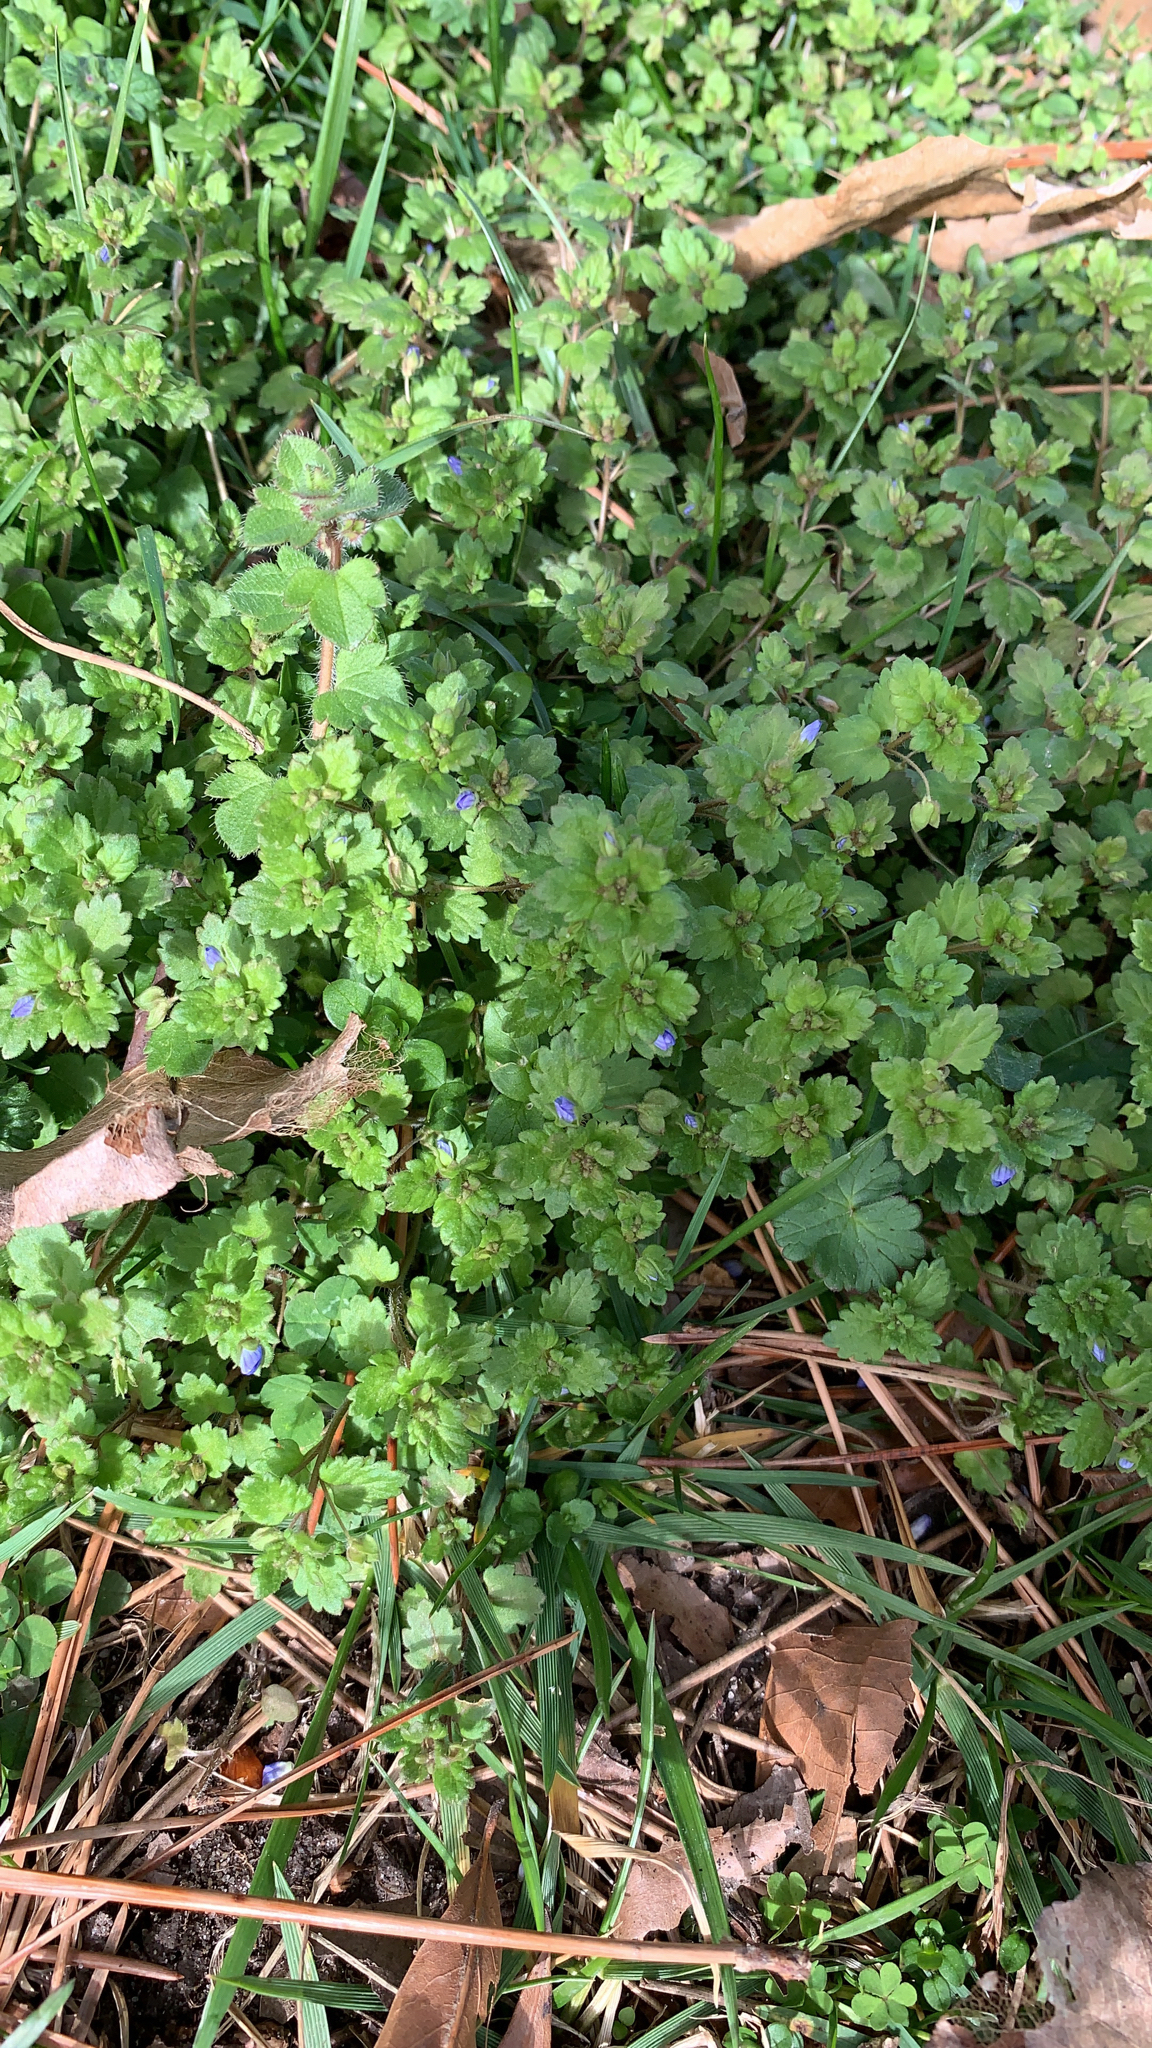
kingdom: Plantae
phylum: Tracheophyta
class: Magnoliopsida
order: Lamiales
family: Plantaginaceae
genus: Veronica
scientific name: Veronica polita
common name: Grey field-speedwell
